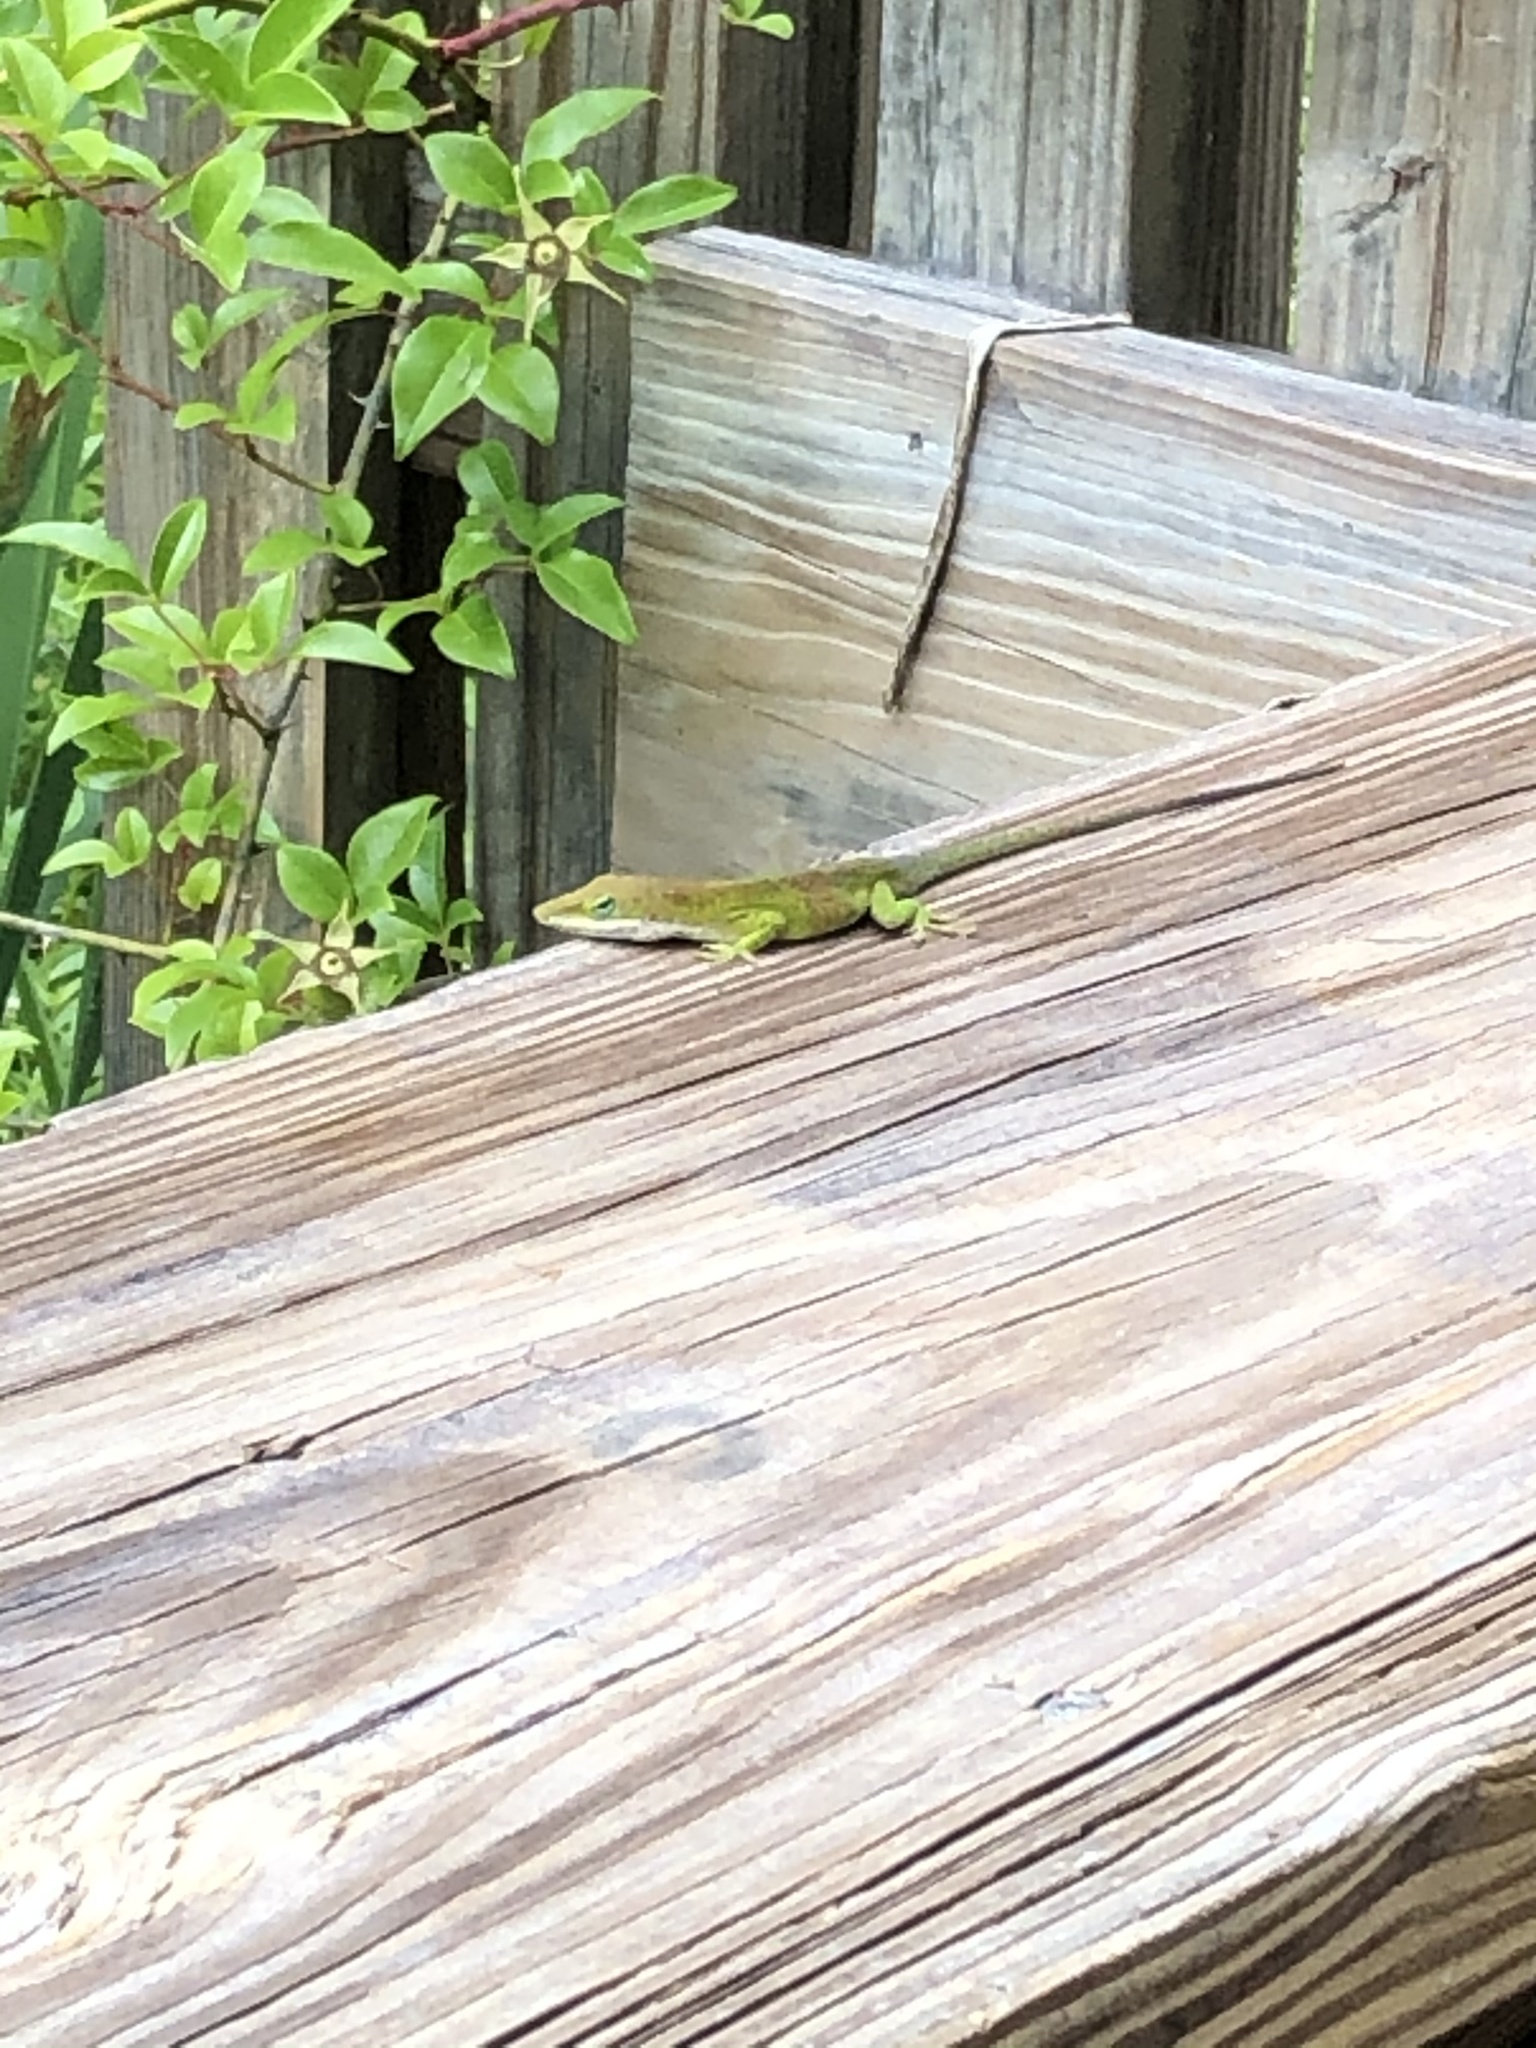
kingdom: Animalia
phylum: Chordata
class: Squamata
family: Dactyloidae
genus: Anolis
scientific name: Anolis carolinensis
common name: Green anole
